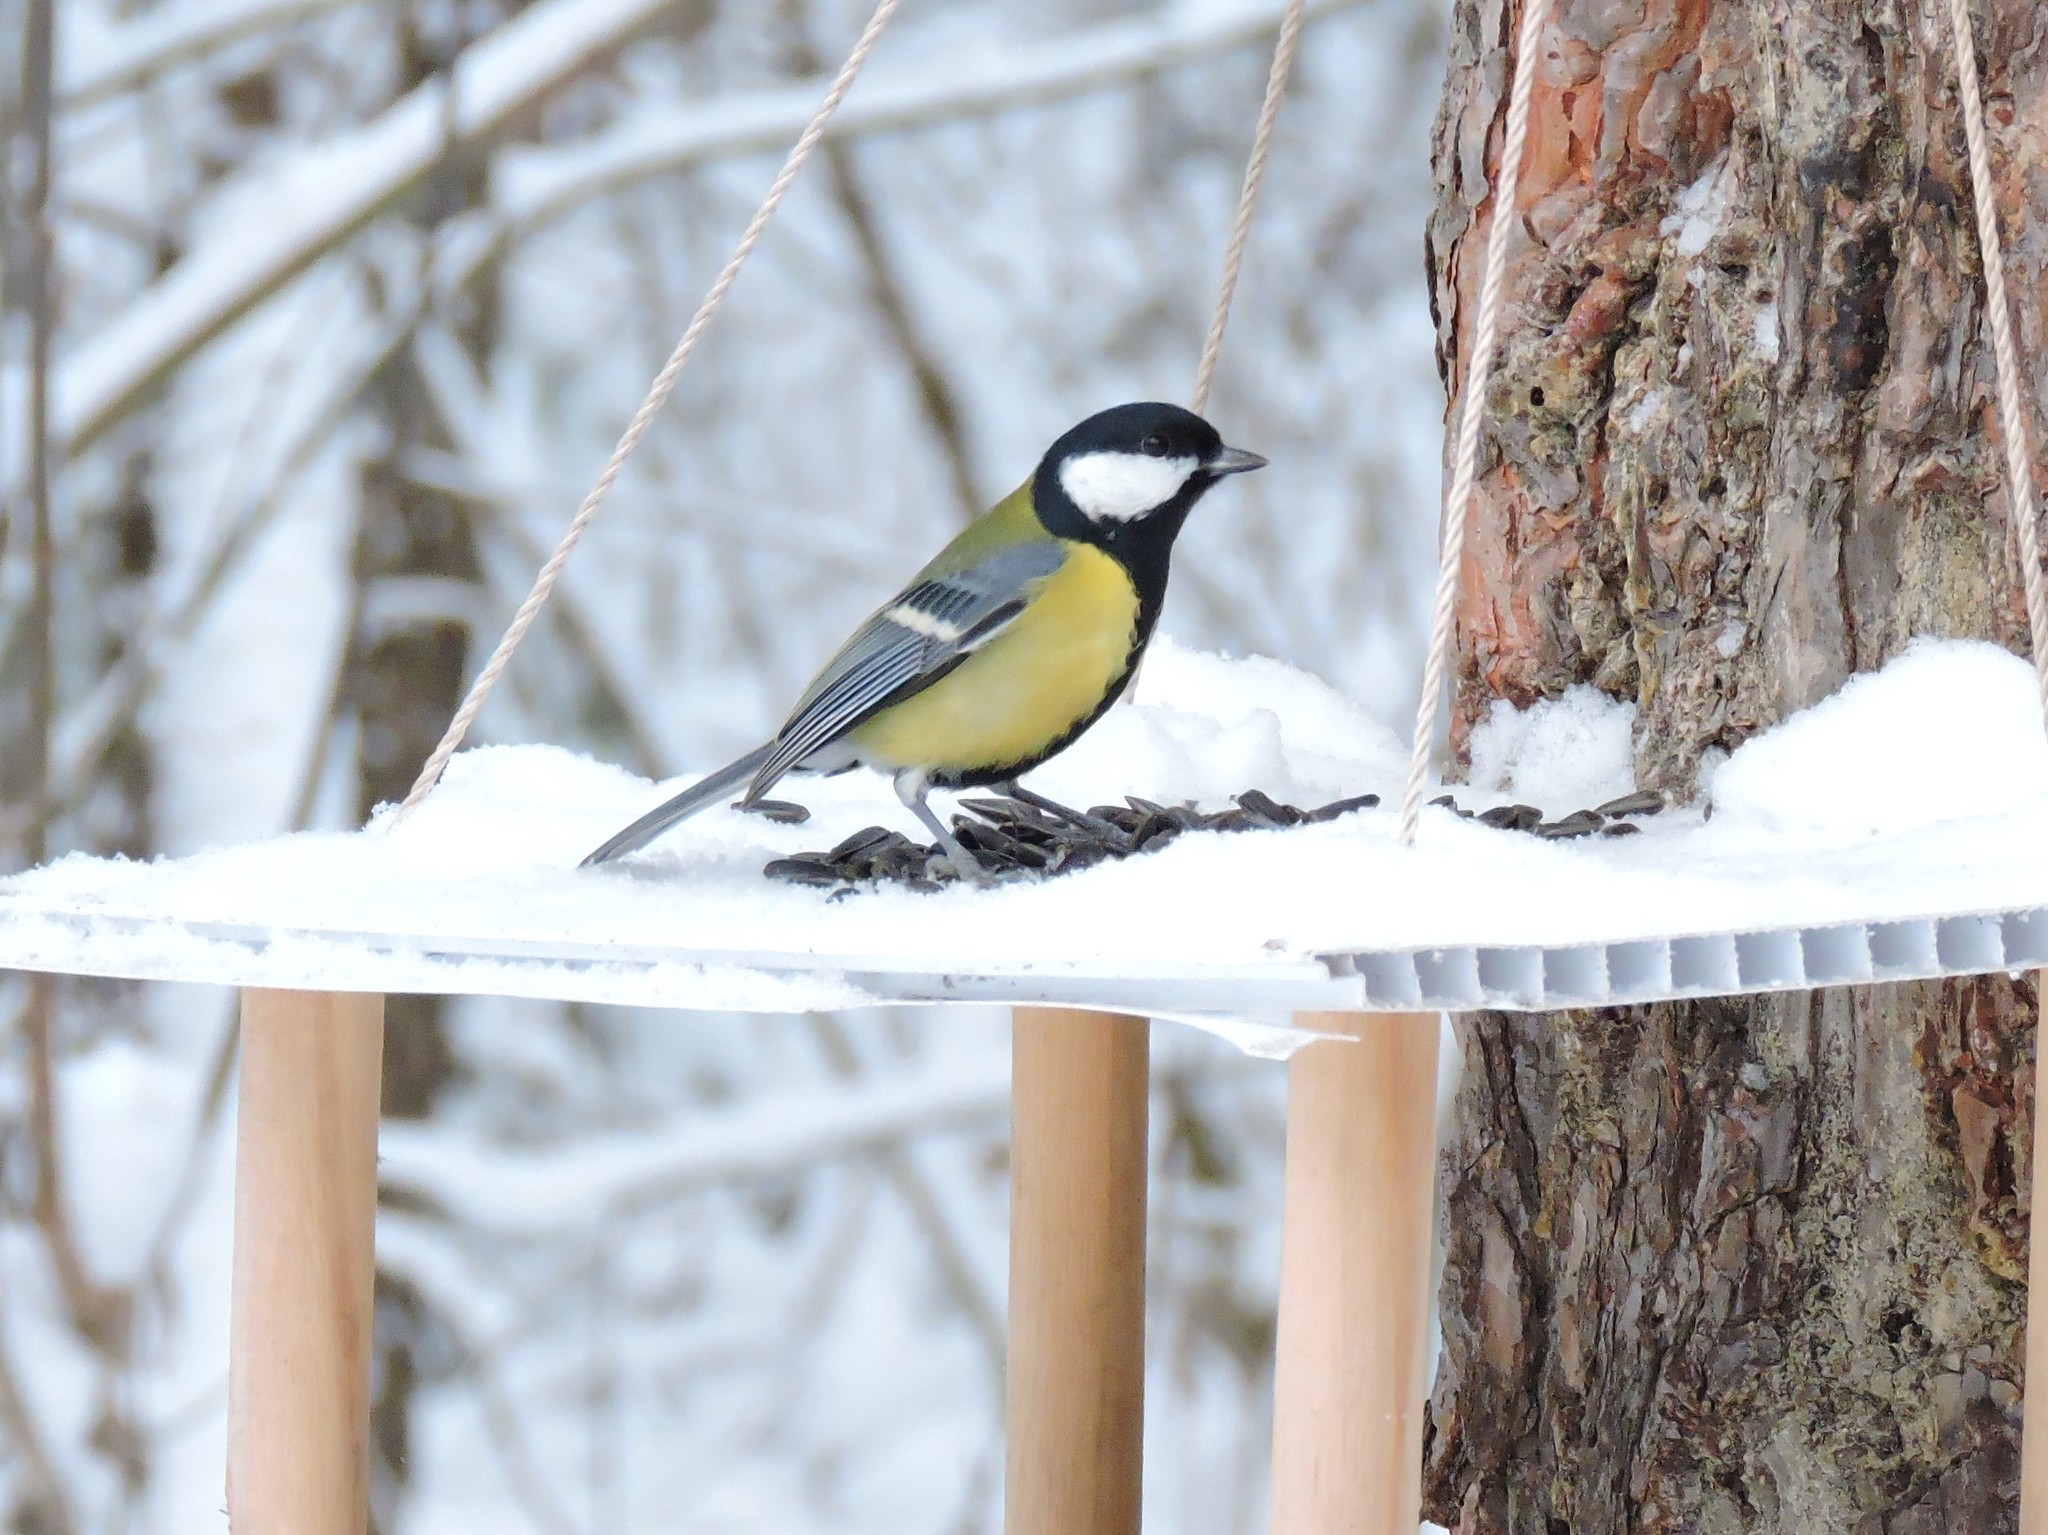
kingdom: Animalia
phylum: Chordata
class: Aves
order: Passeriformes
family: Paridae
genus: Parus
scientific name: Parus major
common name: Great tit
